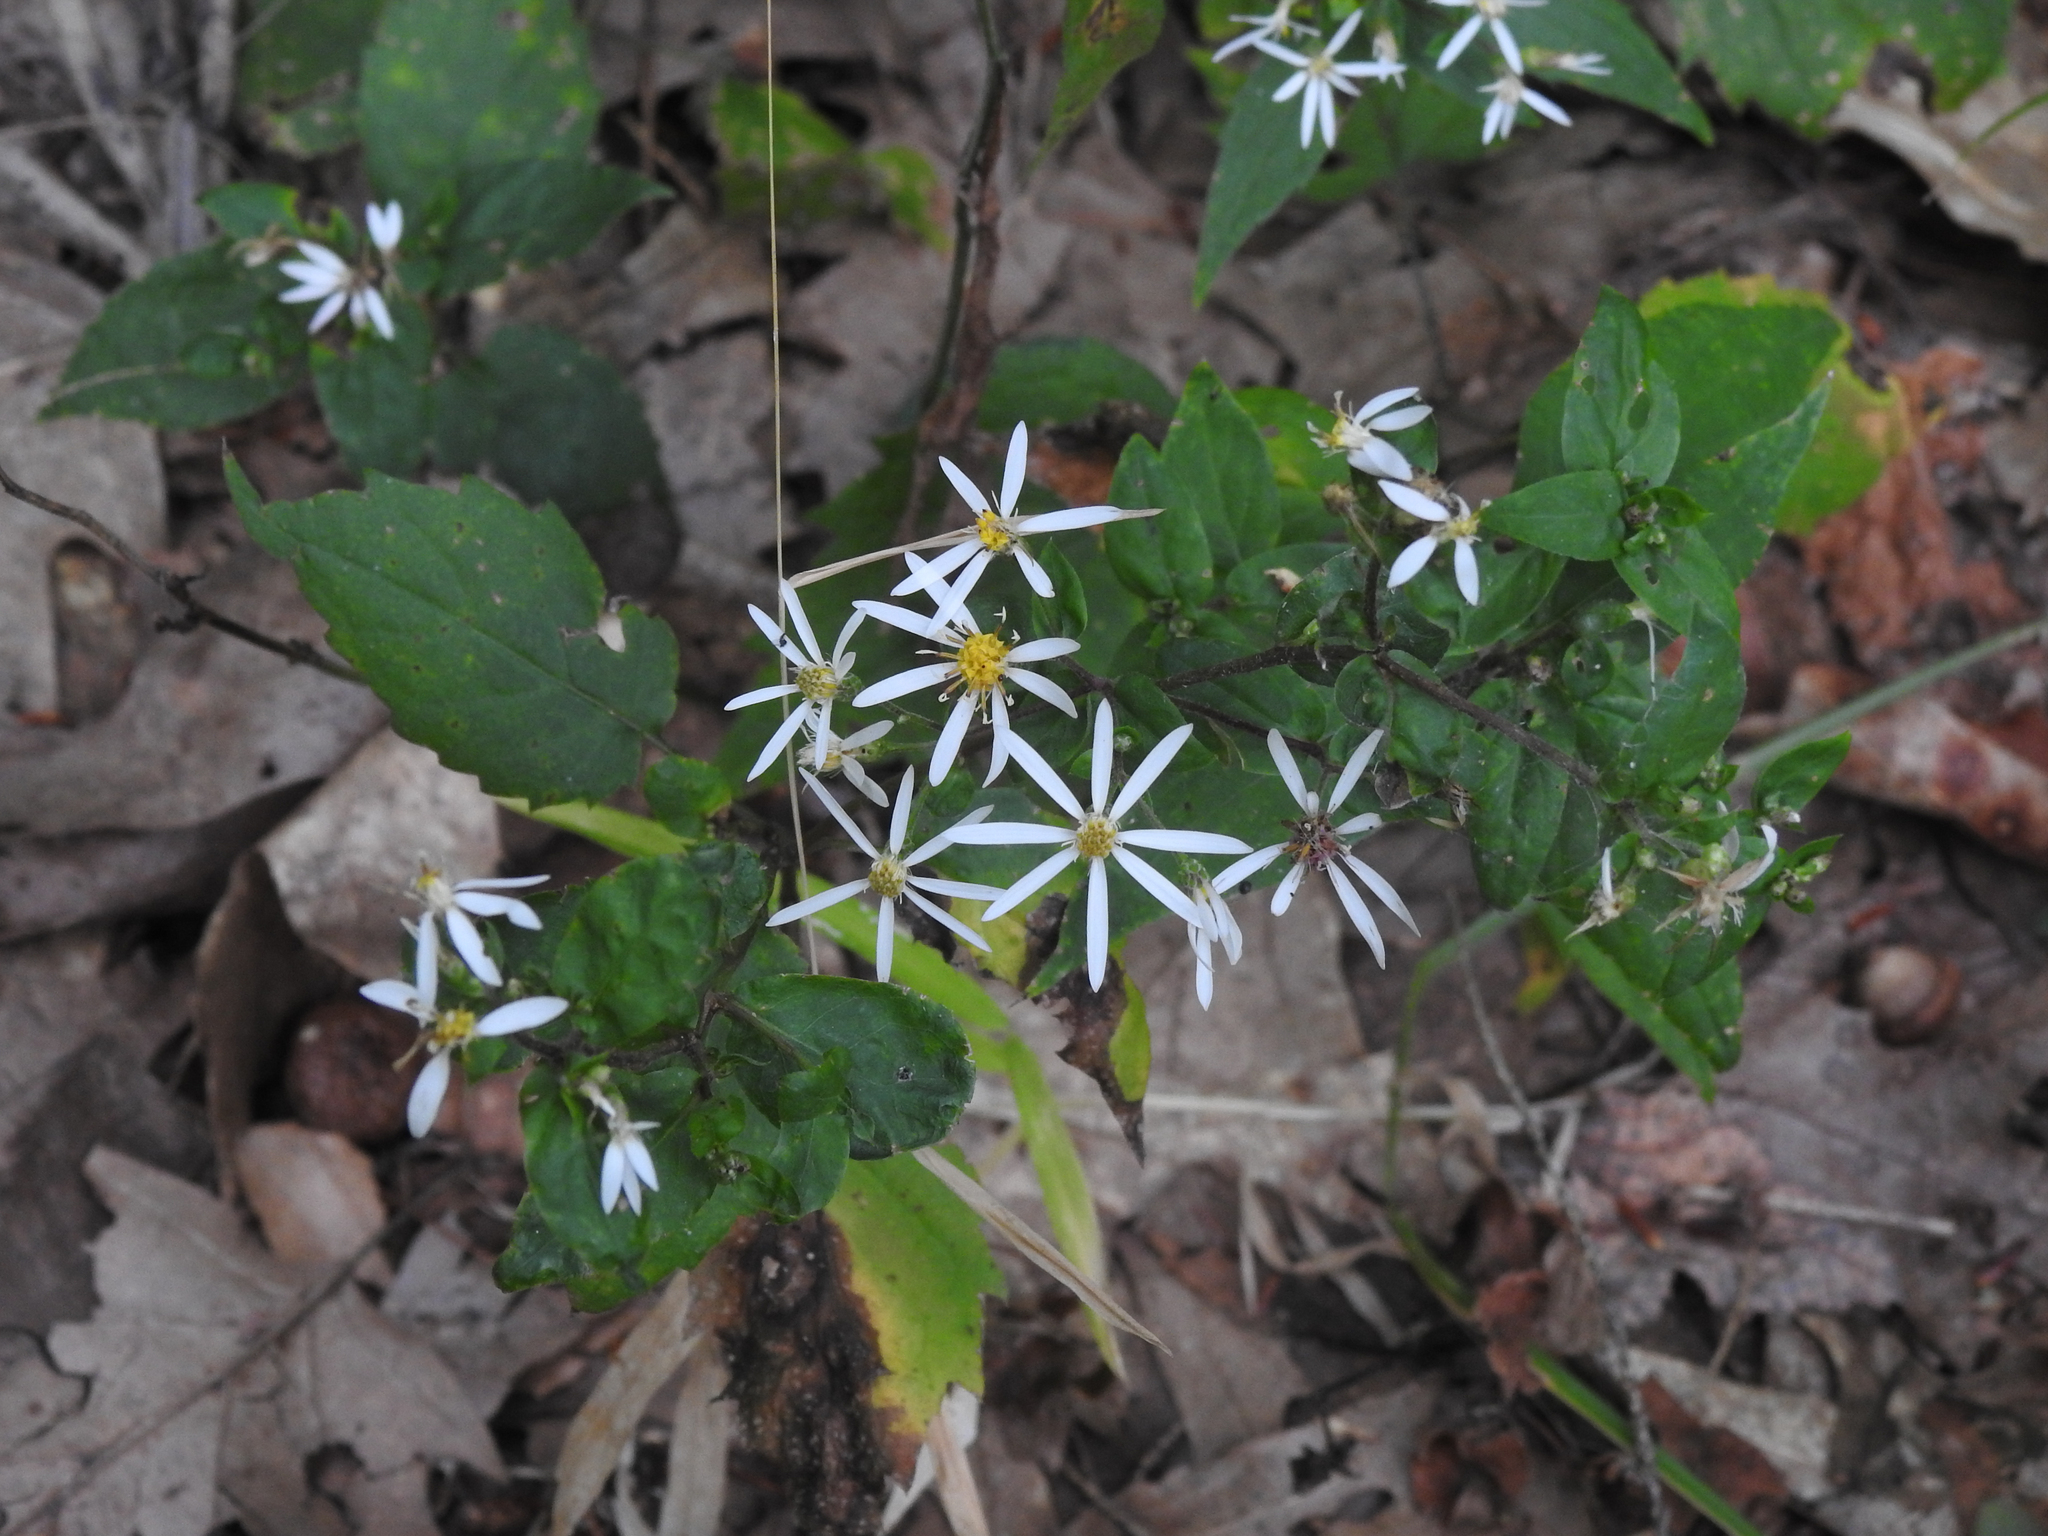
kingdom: Plantae
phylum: Tracheophyta
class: Magnoliopsida
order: Asterales
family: Asteraceae
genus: Eurybia
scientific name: Eurybia divaricata
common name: White wood aster
